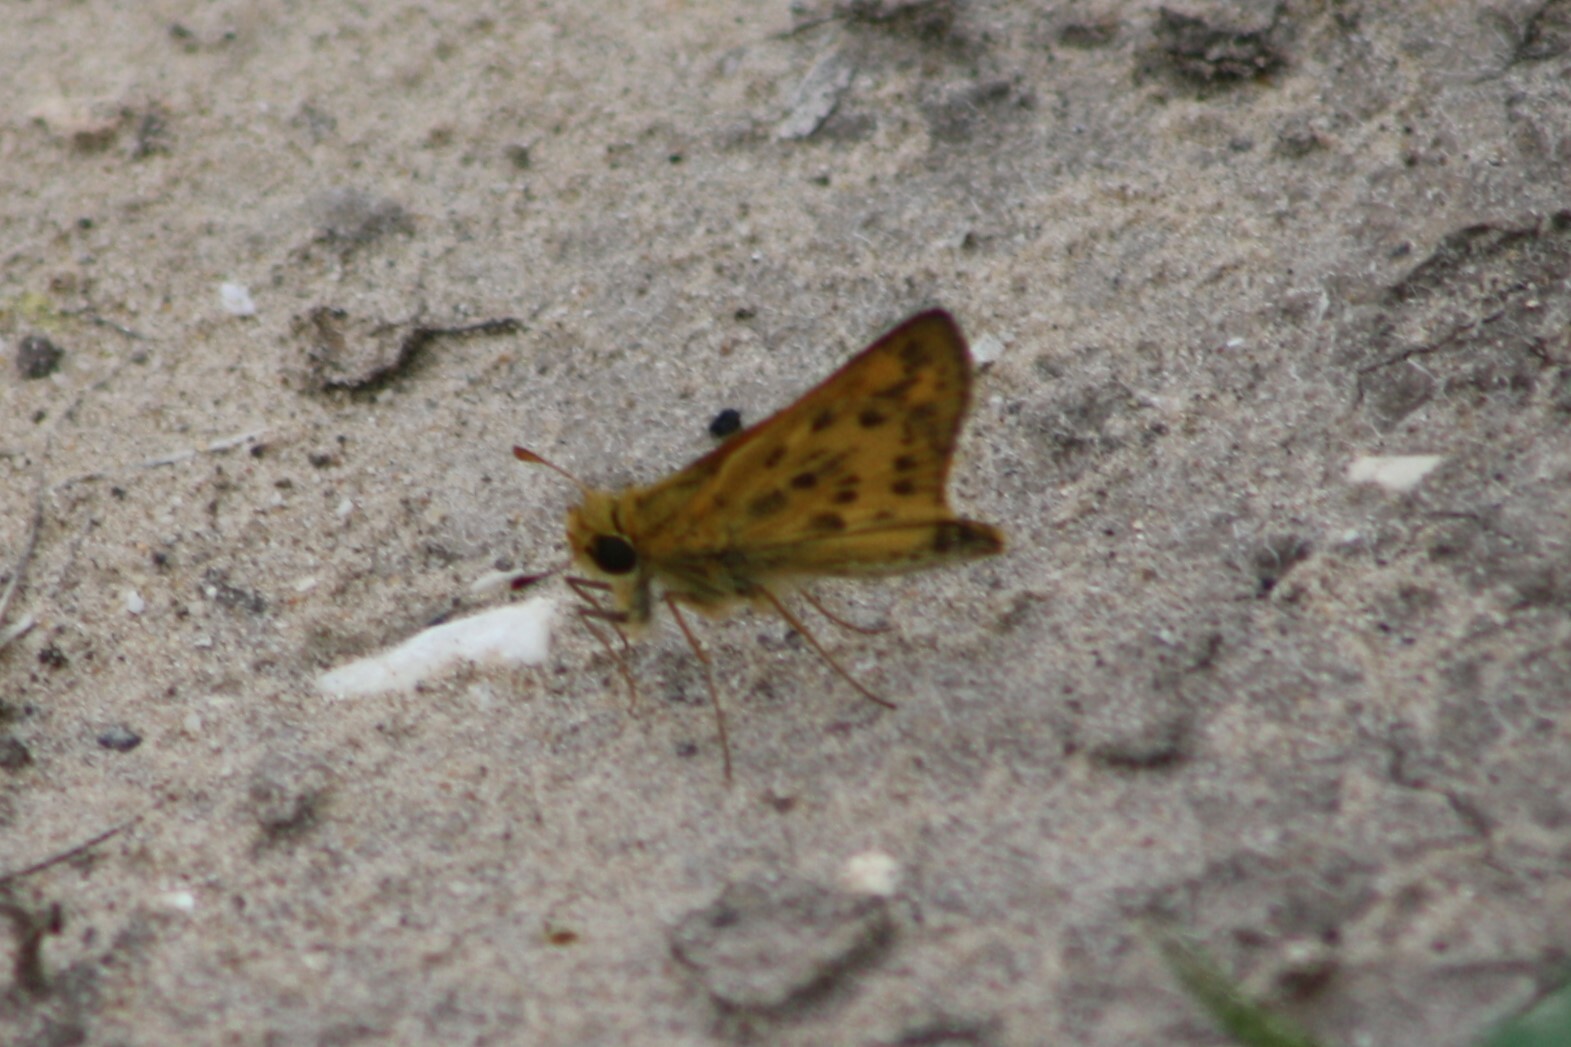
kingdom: Animalia
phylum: Arthropoda
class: Insecta
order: Lepidoptera
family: Hesperiidae
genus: Hylephila
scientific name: Hylephila phyleus
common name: Fiery skipper
